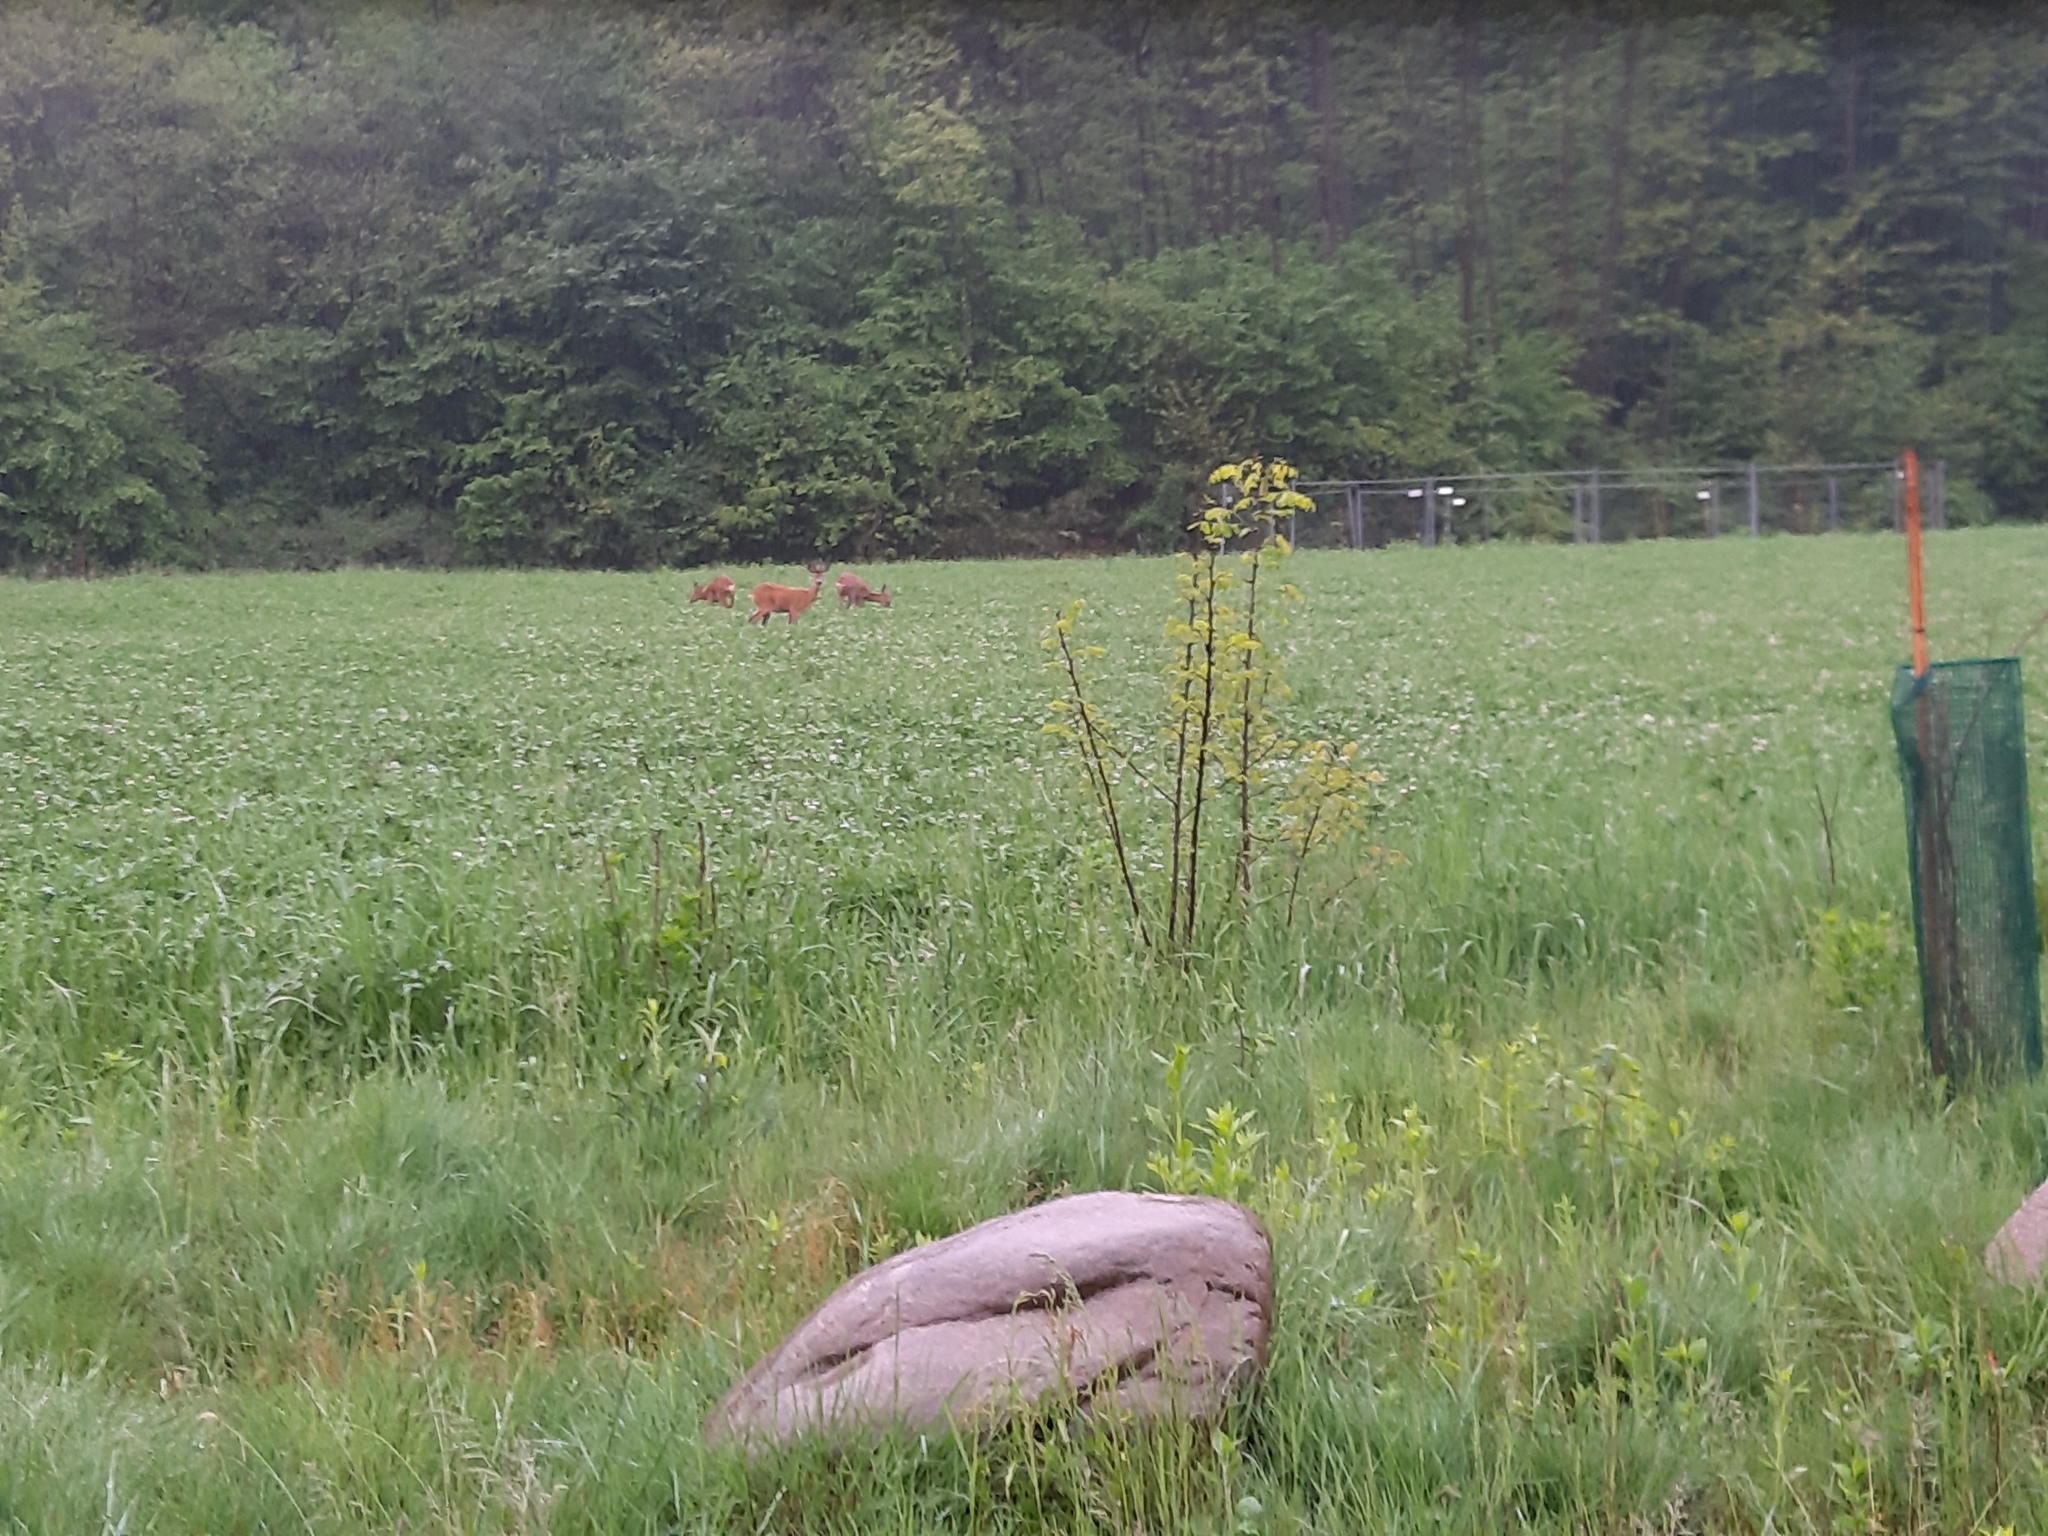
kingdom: Animalia
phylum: Chordata
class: Mammalia
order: Artiodactyla
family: Cervidae
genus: Capreolus
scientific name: Capreolus capreolus
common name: Western roe deer
